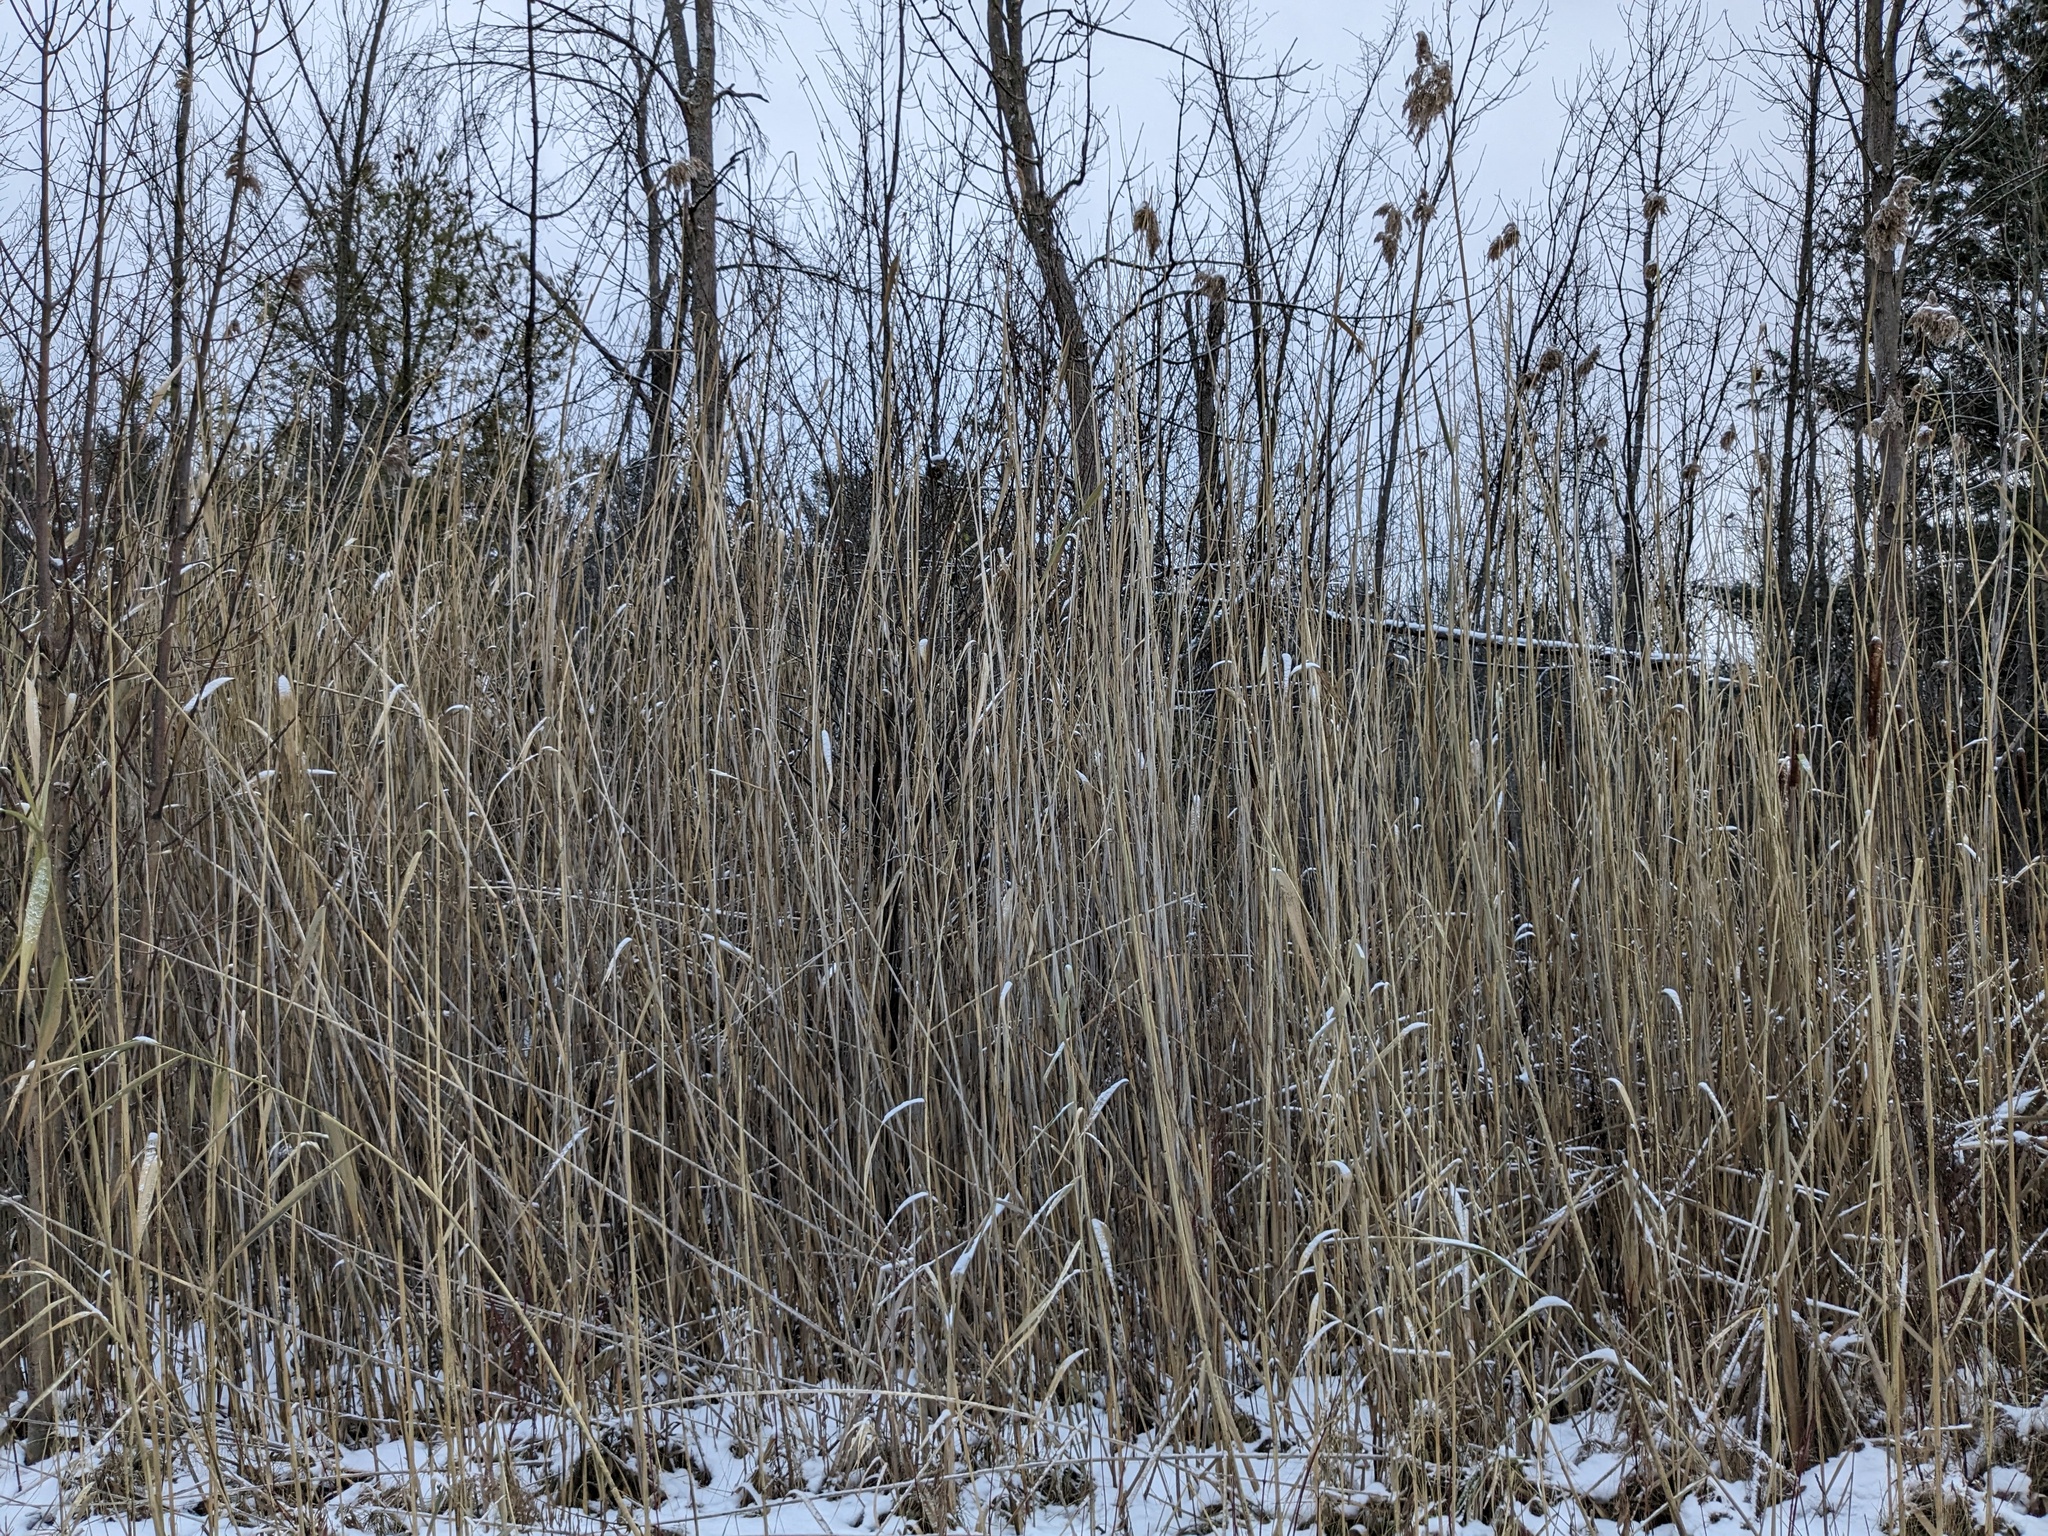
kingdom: Plantae
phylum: Tracheophyta
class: Liliopsida
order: Poales
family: Poaceae
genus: Phragmites
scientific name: Phragmites australis
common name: Common reed
